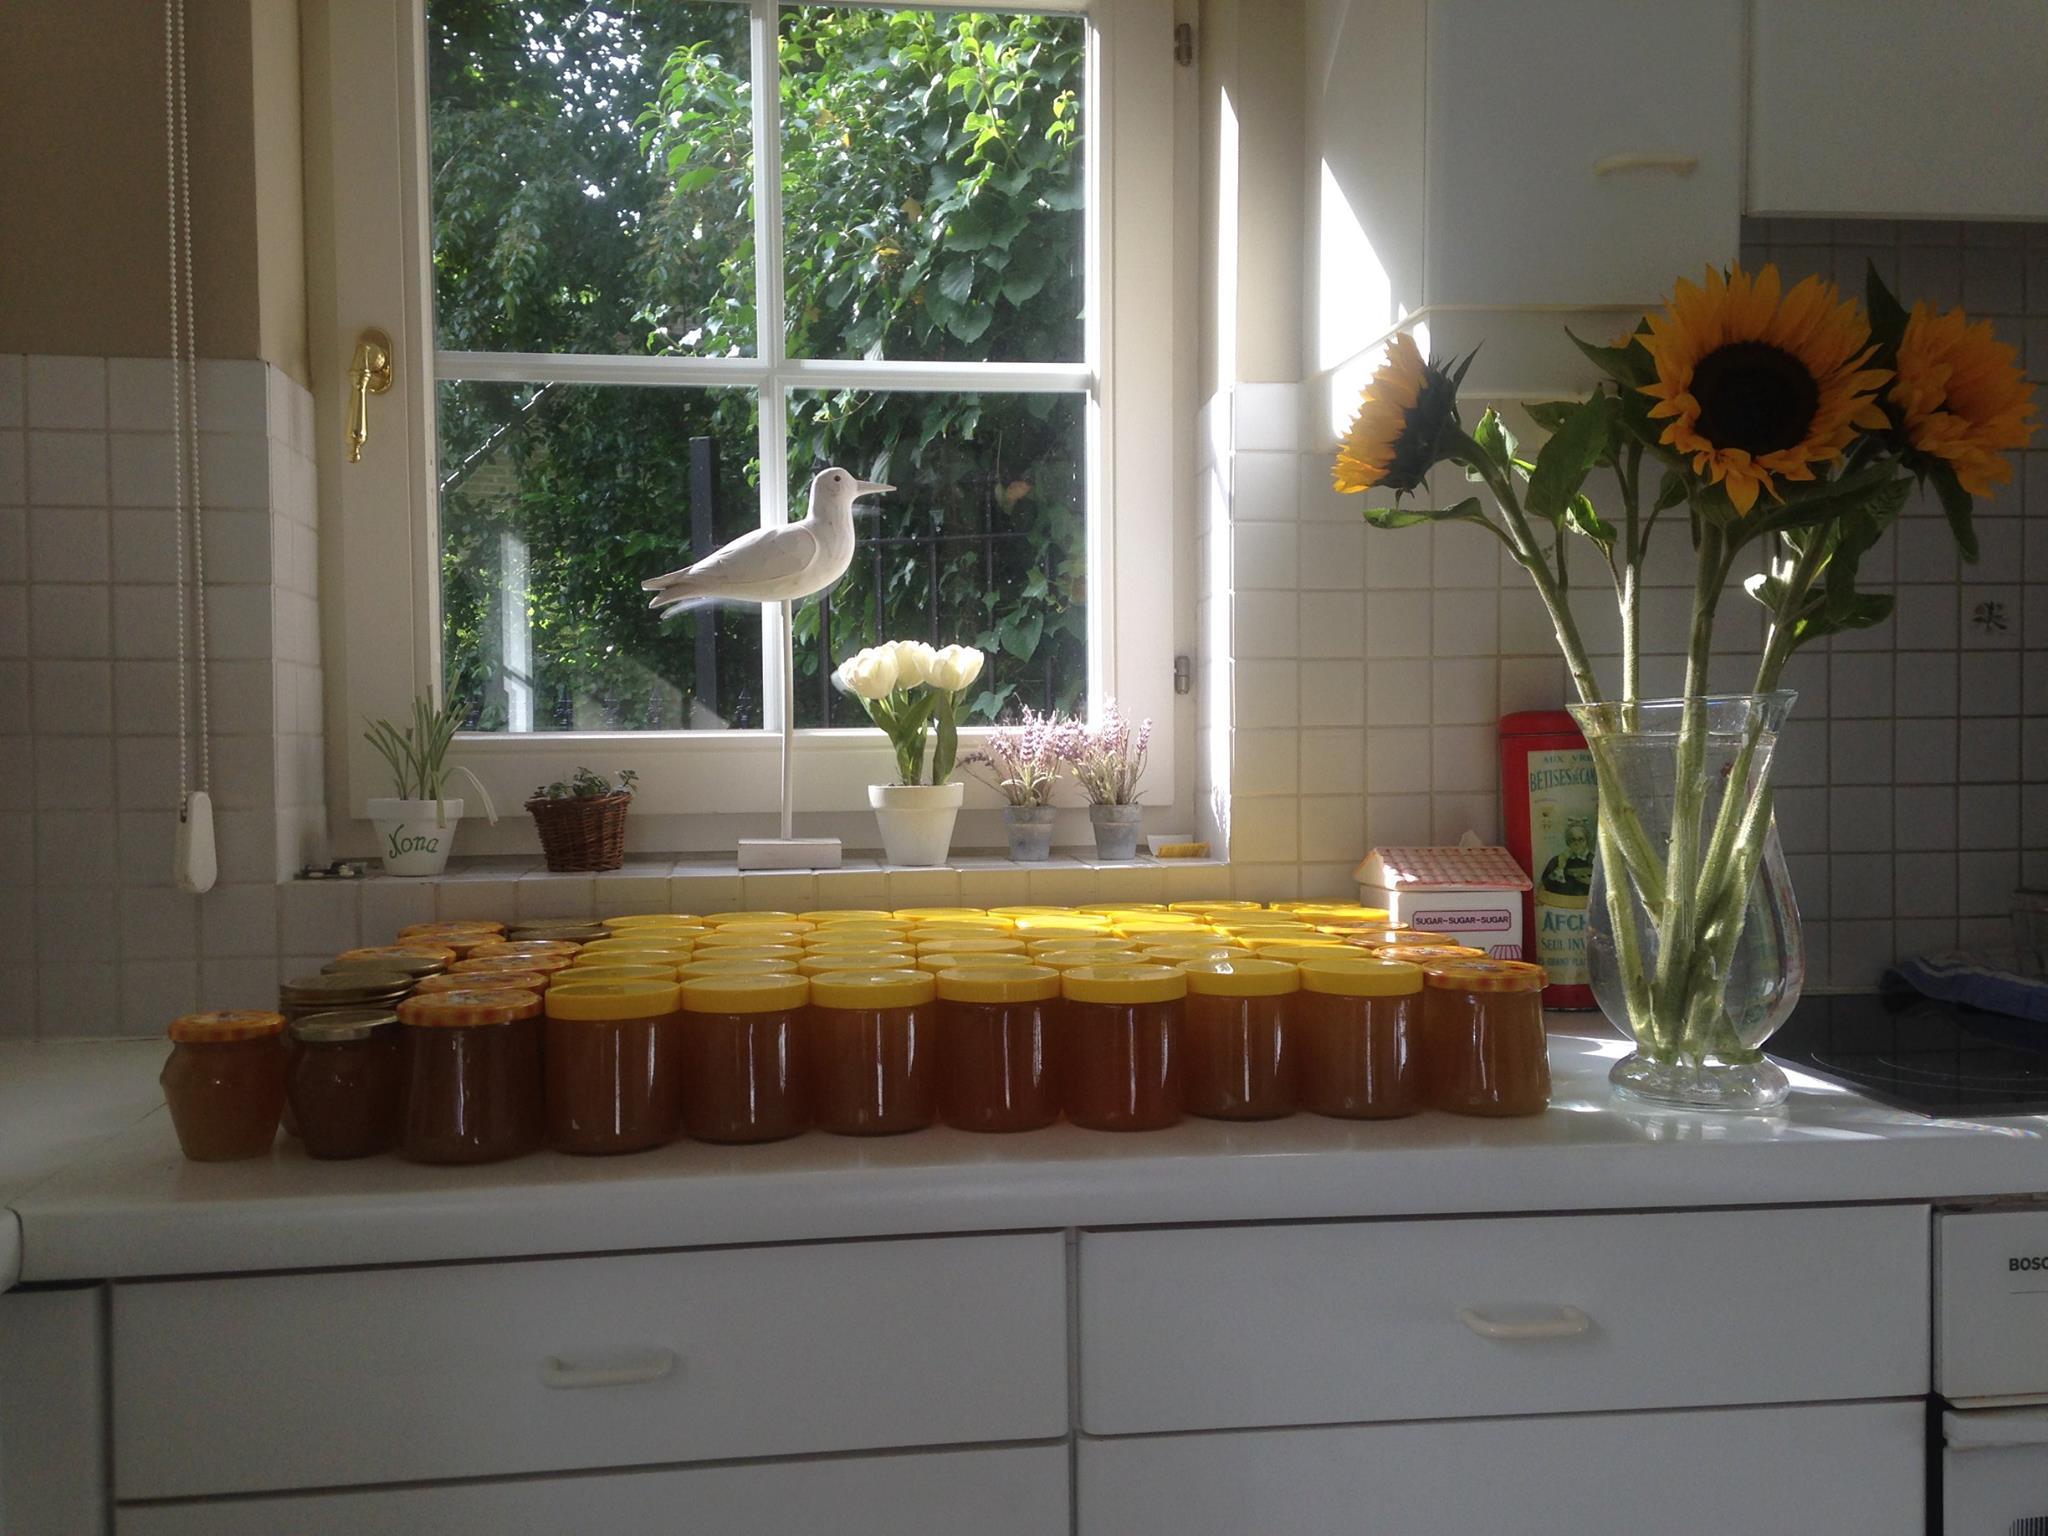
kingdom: Animalia
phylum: Arthropoda
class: Insecta
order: Hymenoptera
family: Vespidae
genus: Vespa
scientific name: Vespa velutina
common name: Asian hornet
